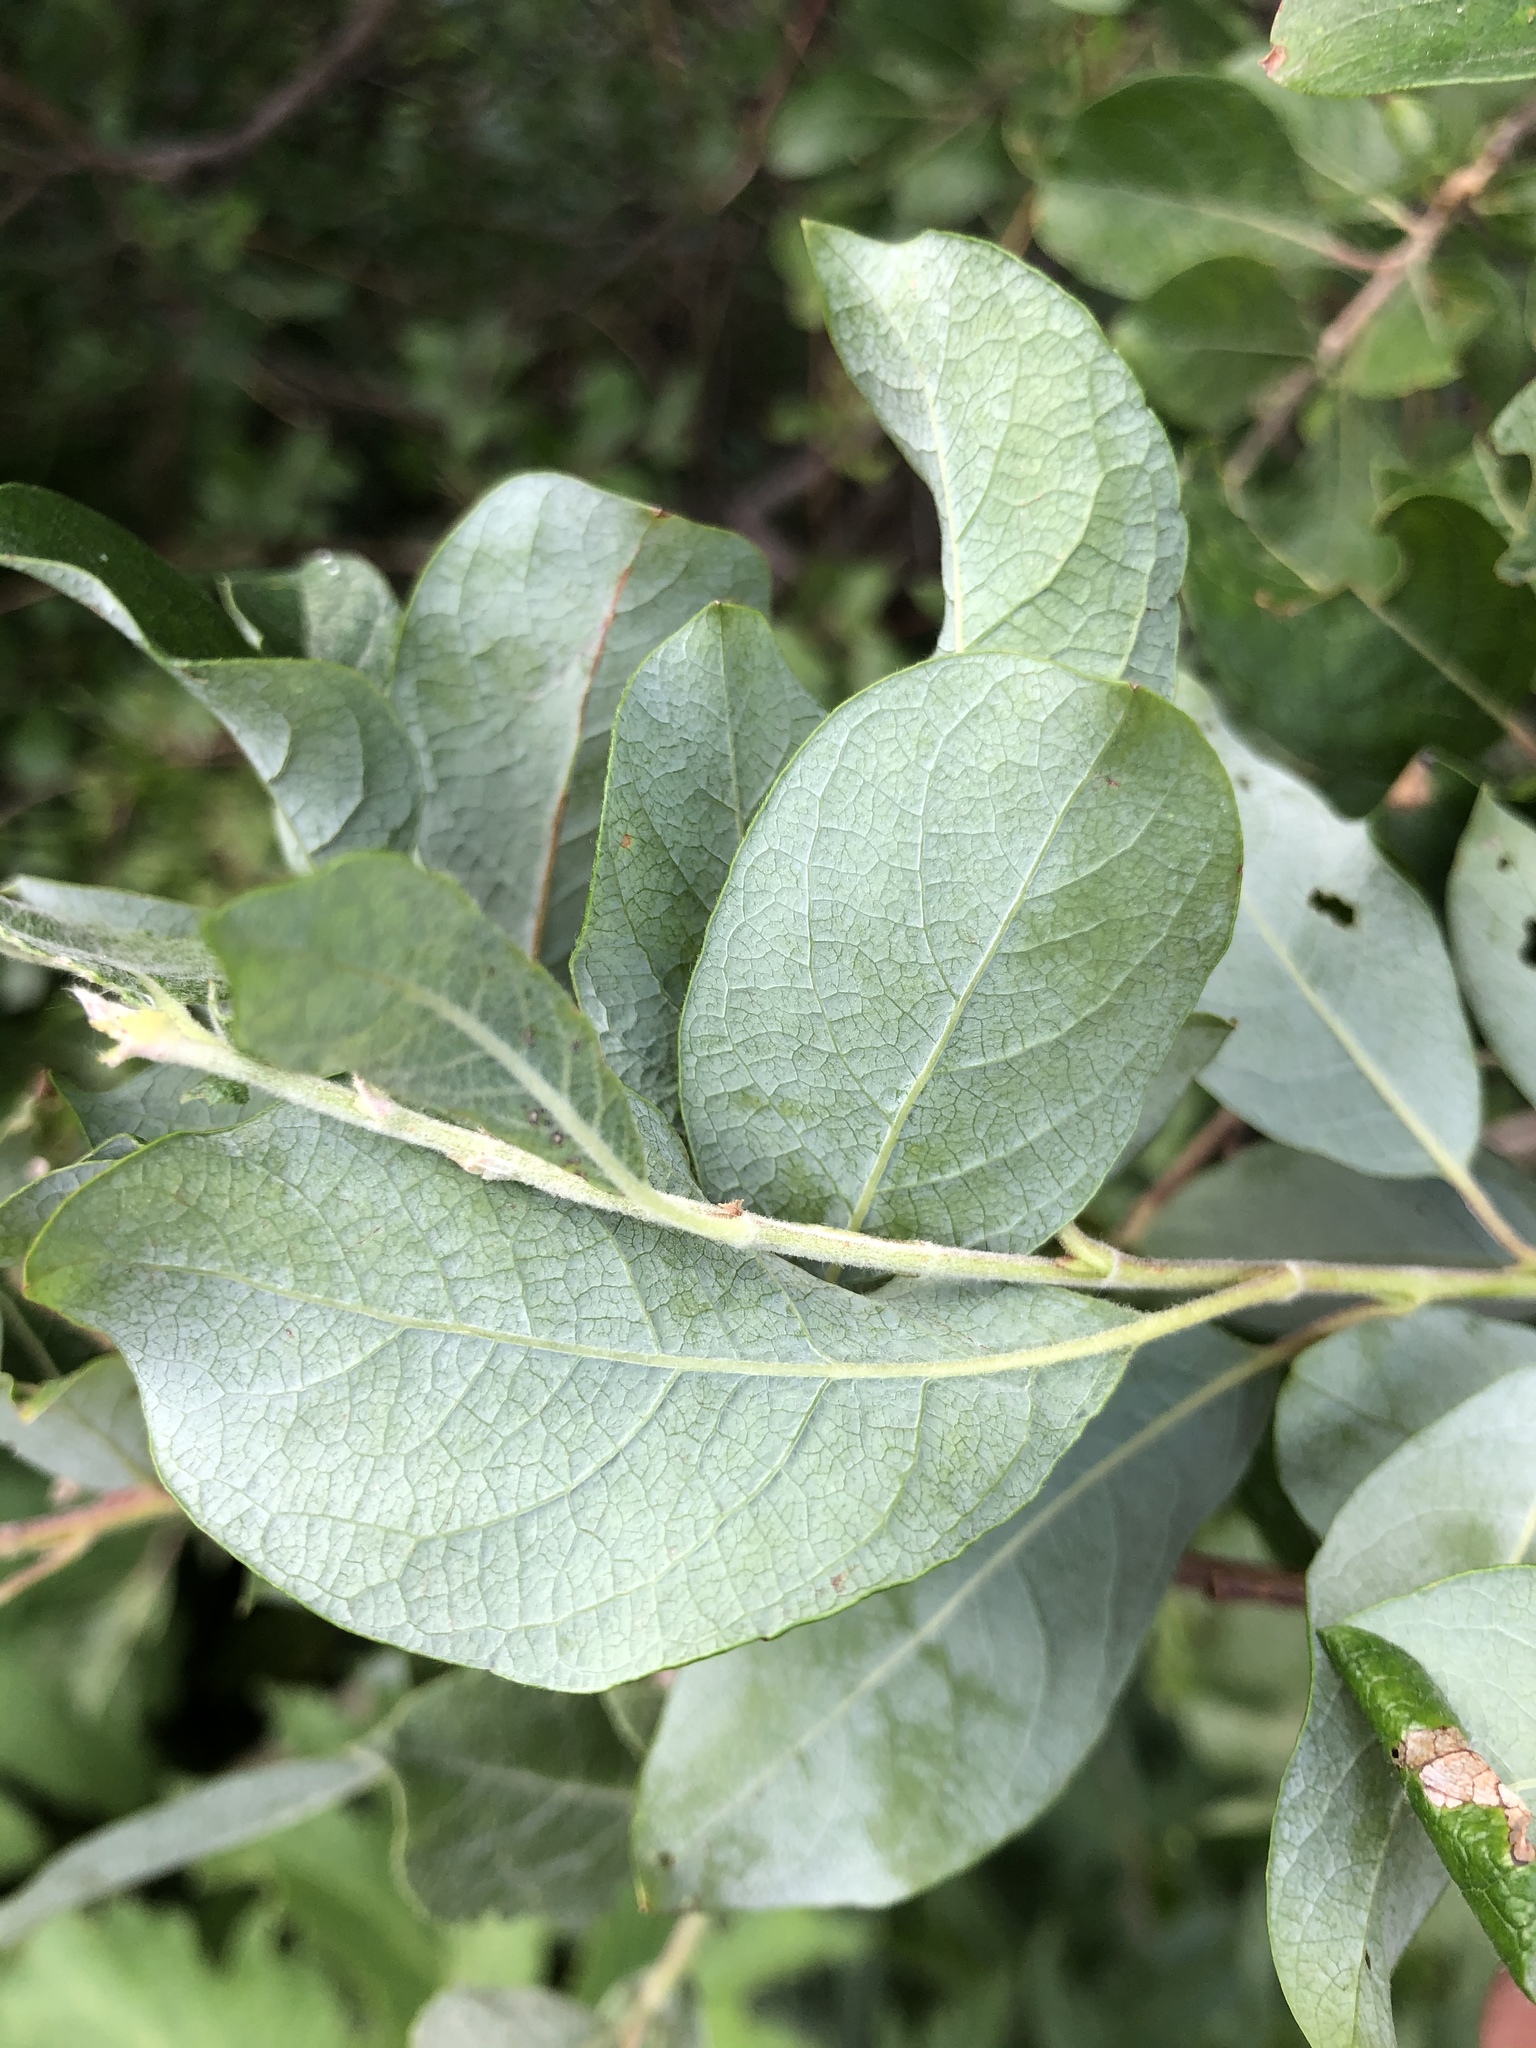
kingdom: Plantae
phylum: Tracheophyta
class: Magnoliopsida
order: Malpighiales
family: Salicaceae
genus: Salix
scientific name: Salix bebbiana
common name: Bebb's willow
